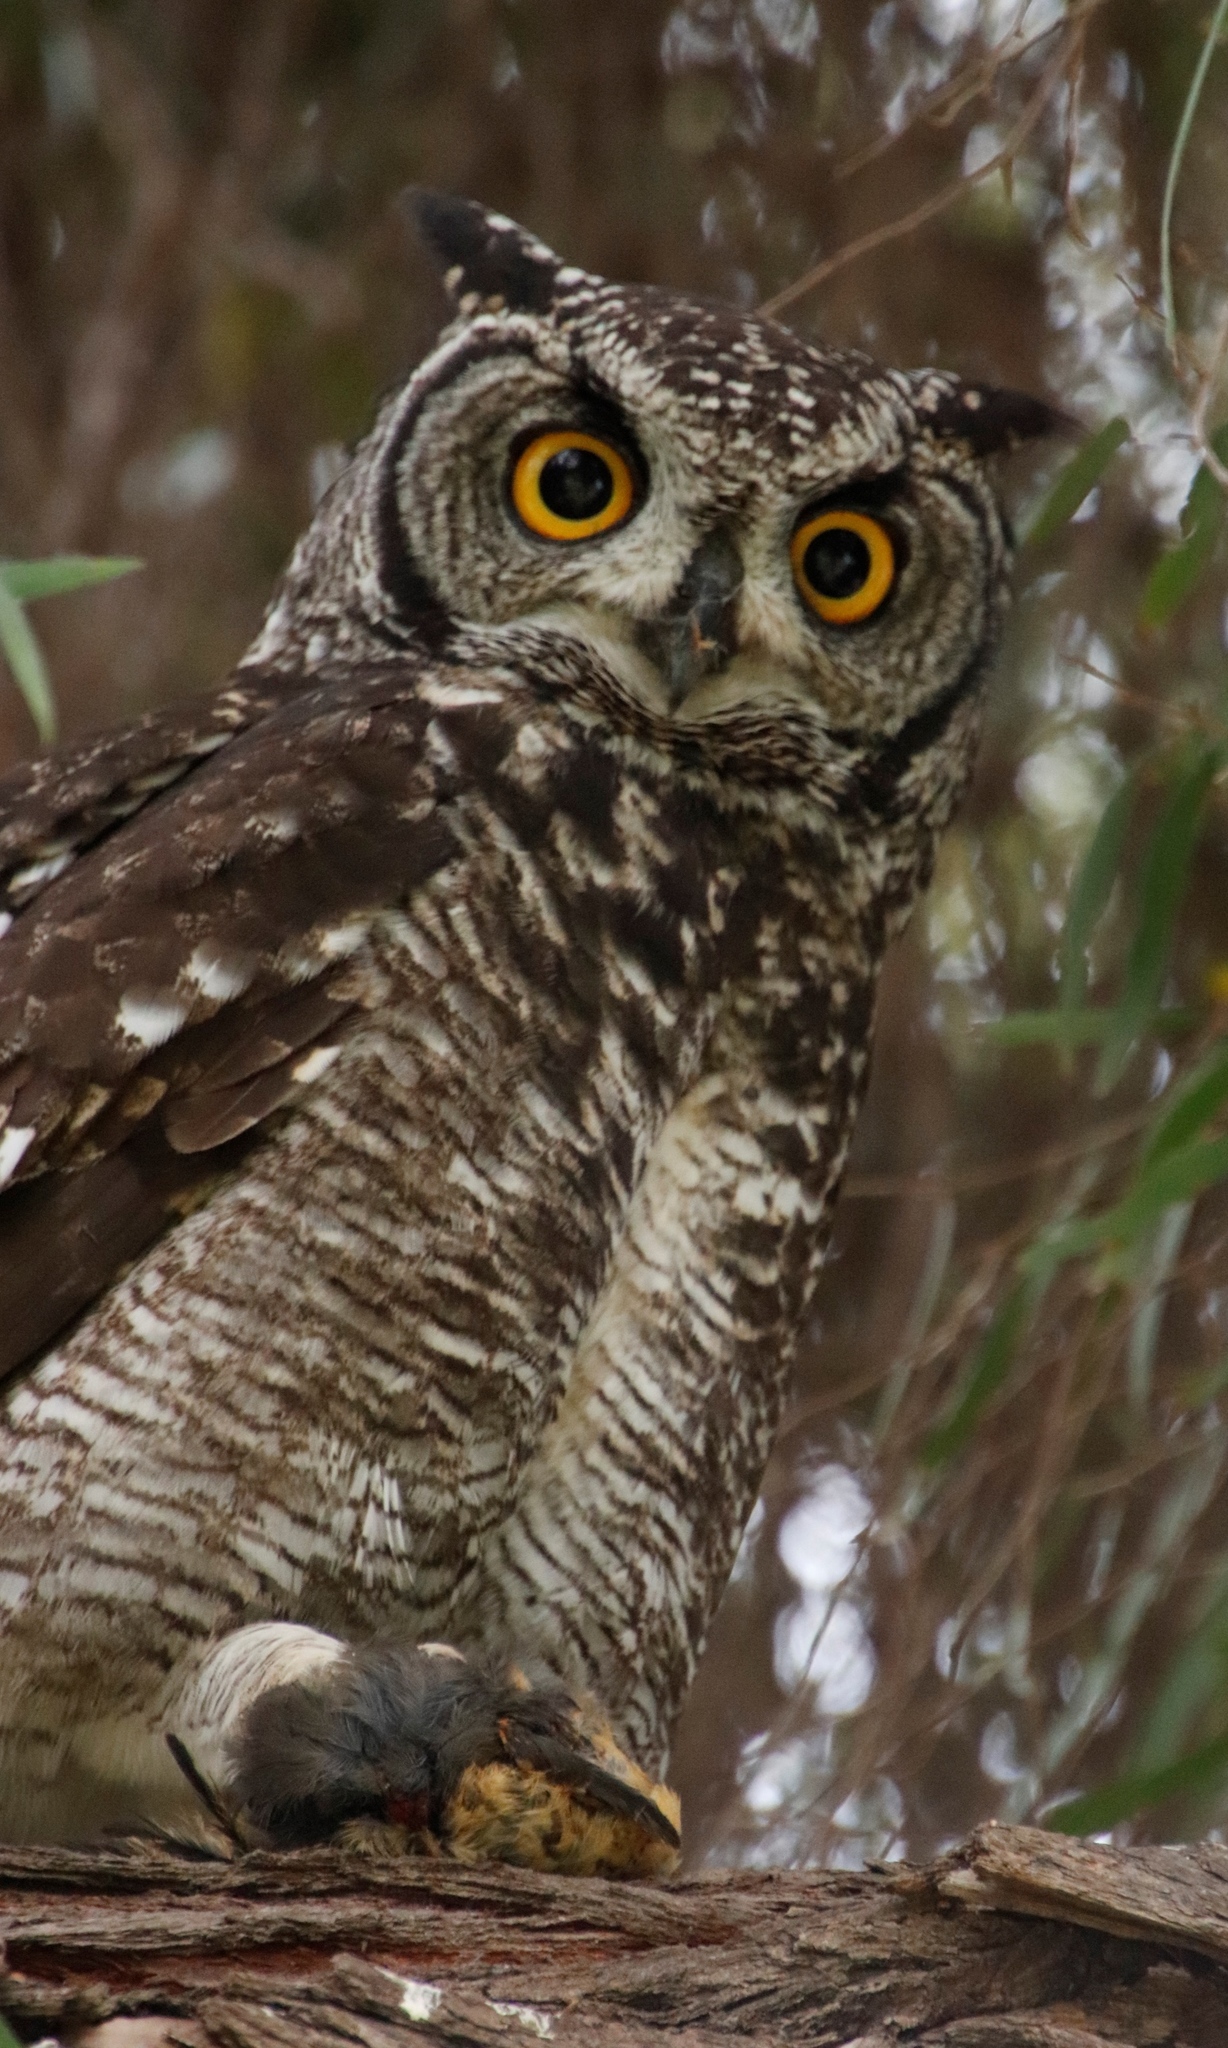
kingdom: Animalia
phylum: Chordata
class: Aves
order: Strigiformes
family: Strigidae
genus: Bubo
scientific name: Bubo africanus
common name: Spotted eagle-owl
